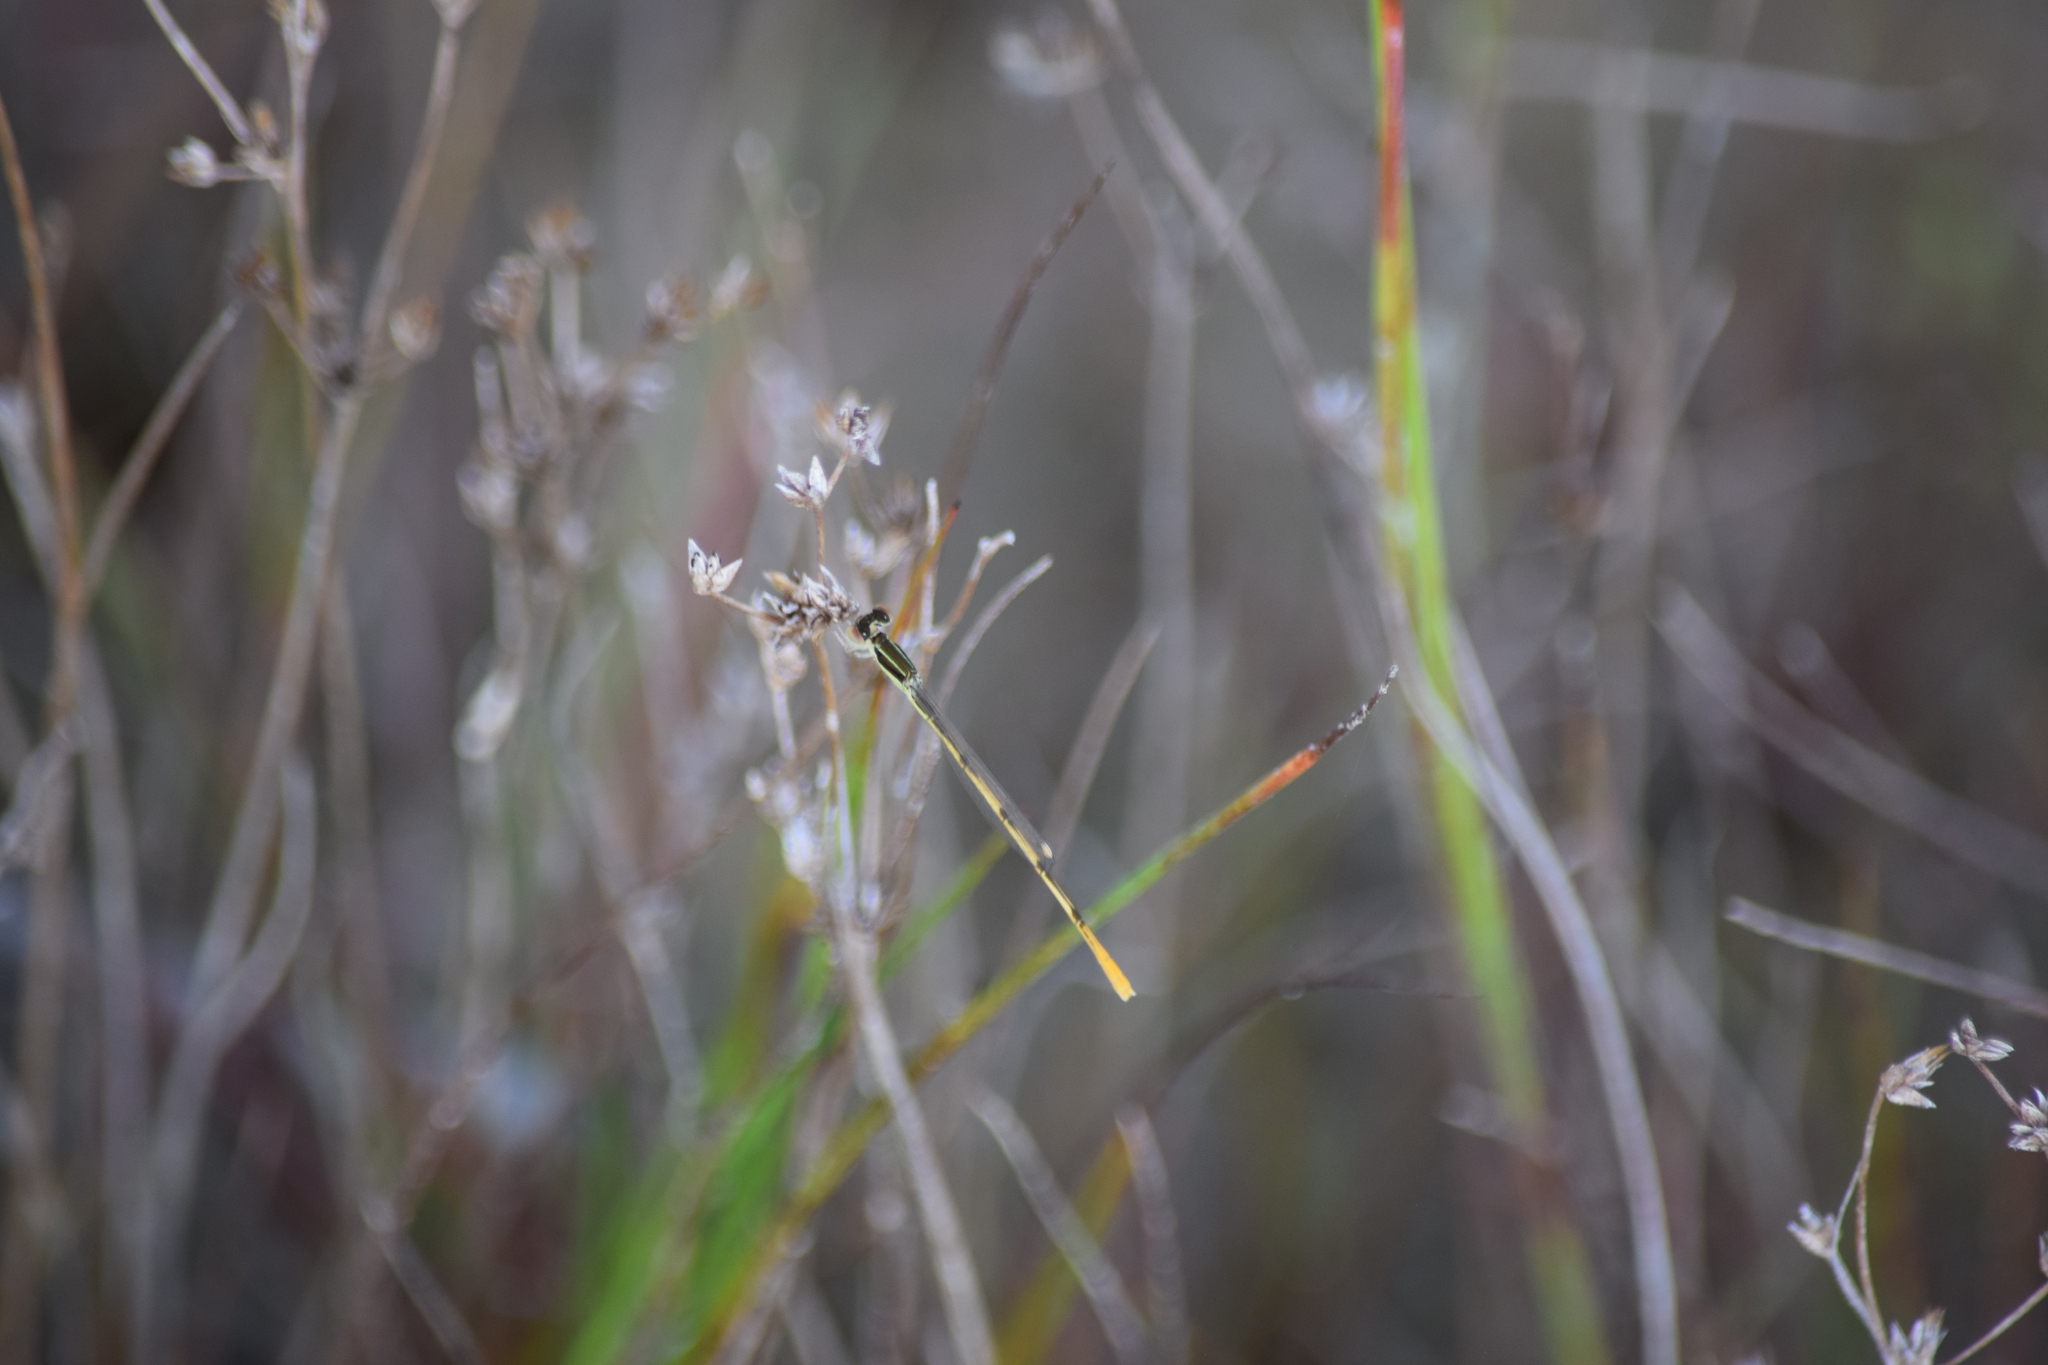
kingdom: Animalia
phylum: Arthropoda
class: Insecta
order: Odonata
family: Coenagrionidae
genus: Ischnura
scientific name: Ischnura hastata
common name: Citrine forktail
